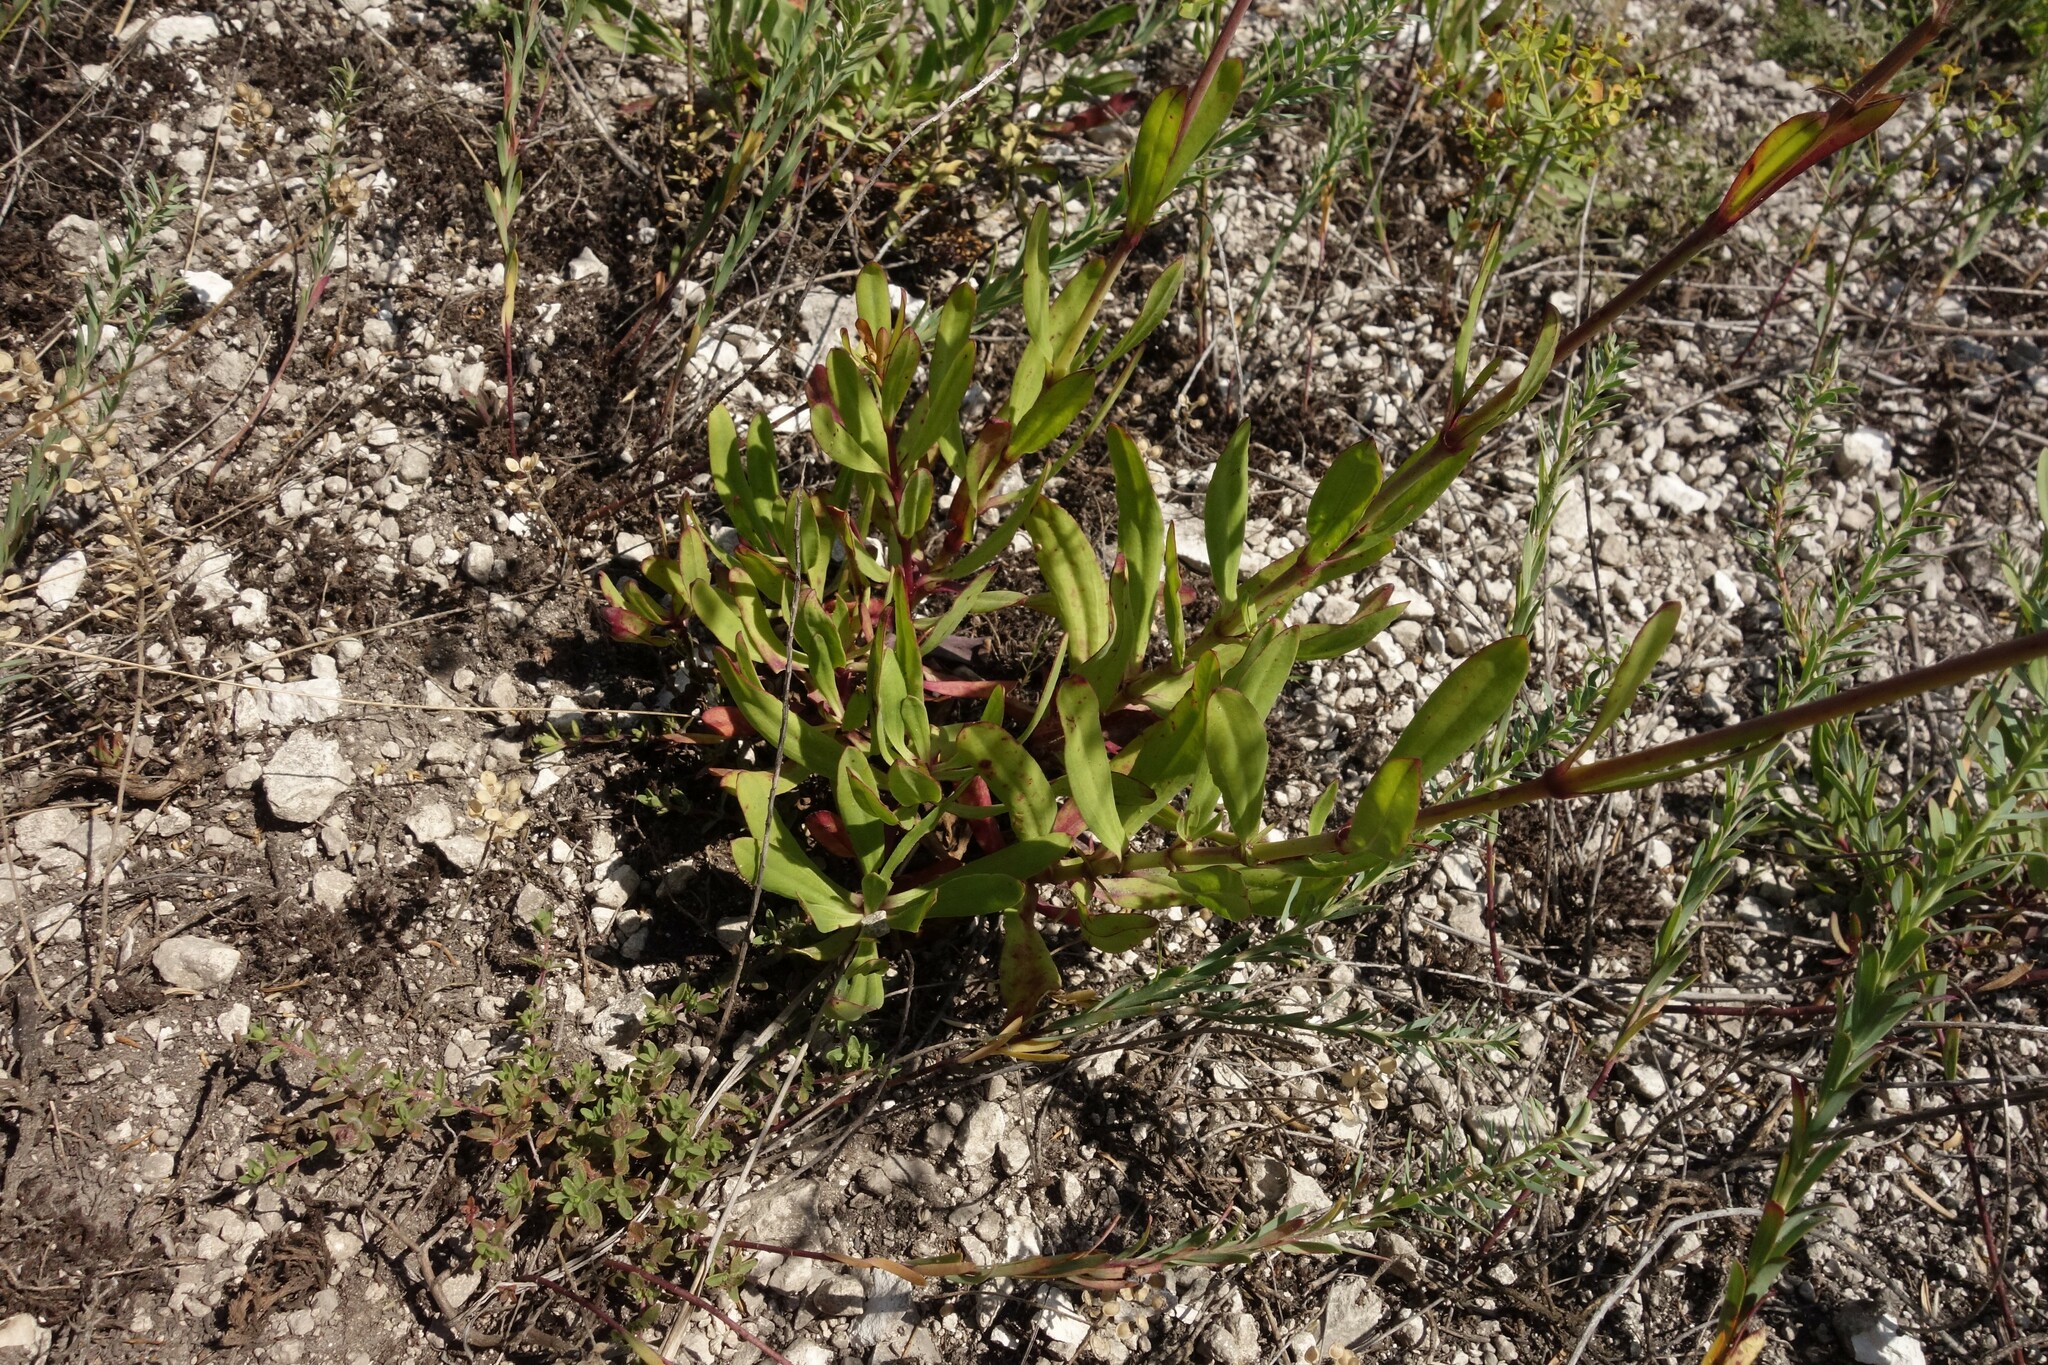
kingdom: Plantae
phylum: Tracheophyta
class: Magnoliopsida
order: Caryophyllales
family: Caryophyllaceae
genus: Gypsophila
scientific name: Gypsophila altissima
